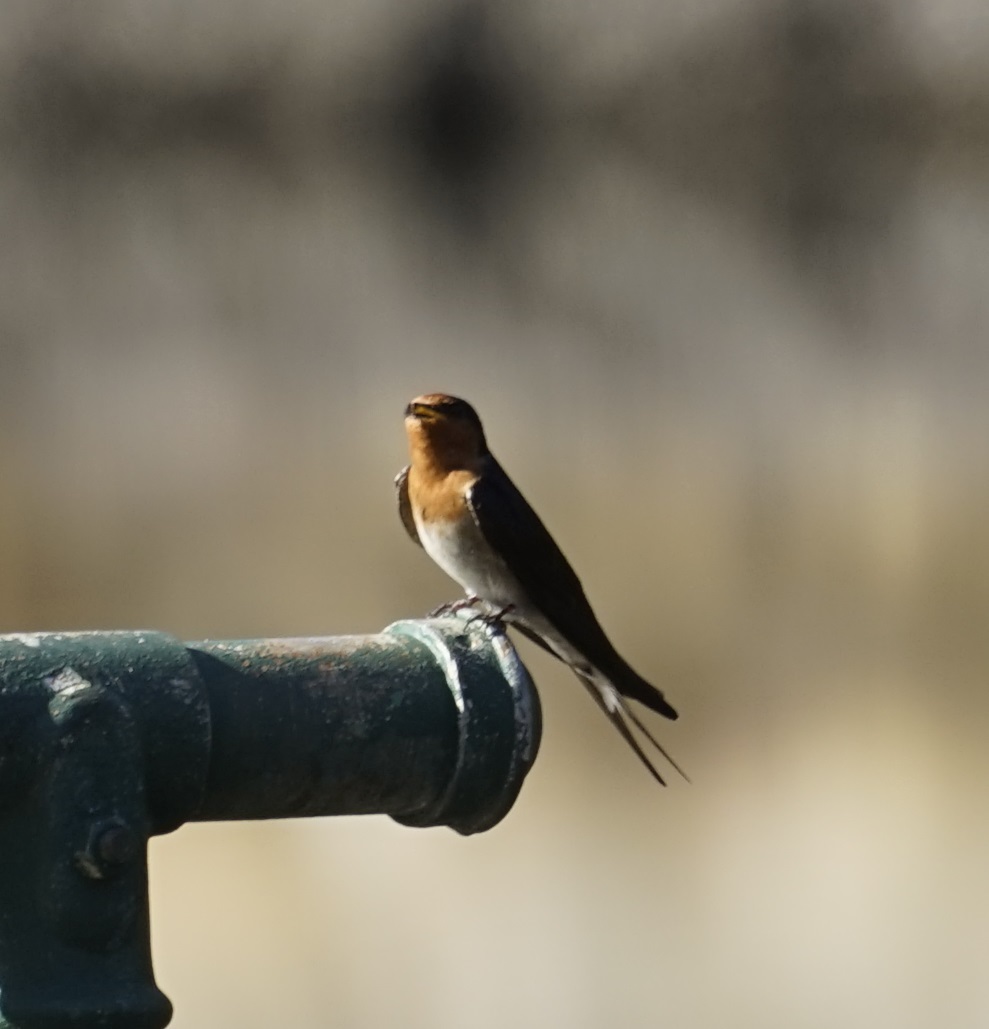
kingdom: Animalia
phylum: Chordata
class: Aves
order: Passeriformes
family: Hirundinidae
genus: Hirundo
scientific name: Hirundo neoxena
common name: Welcome swallow
